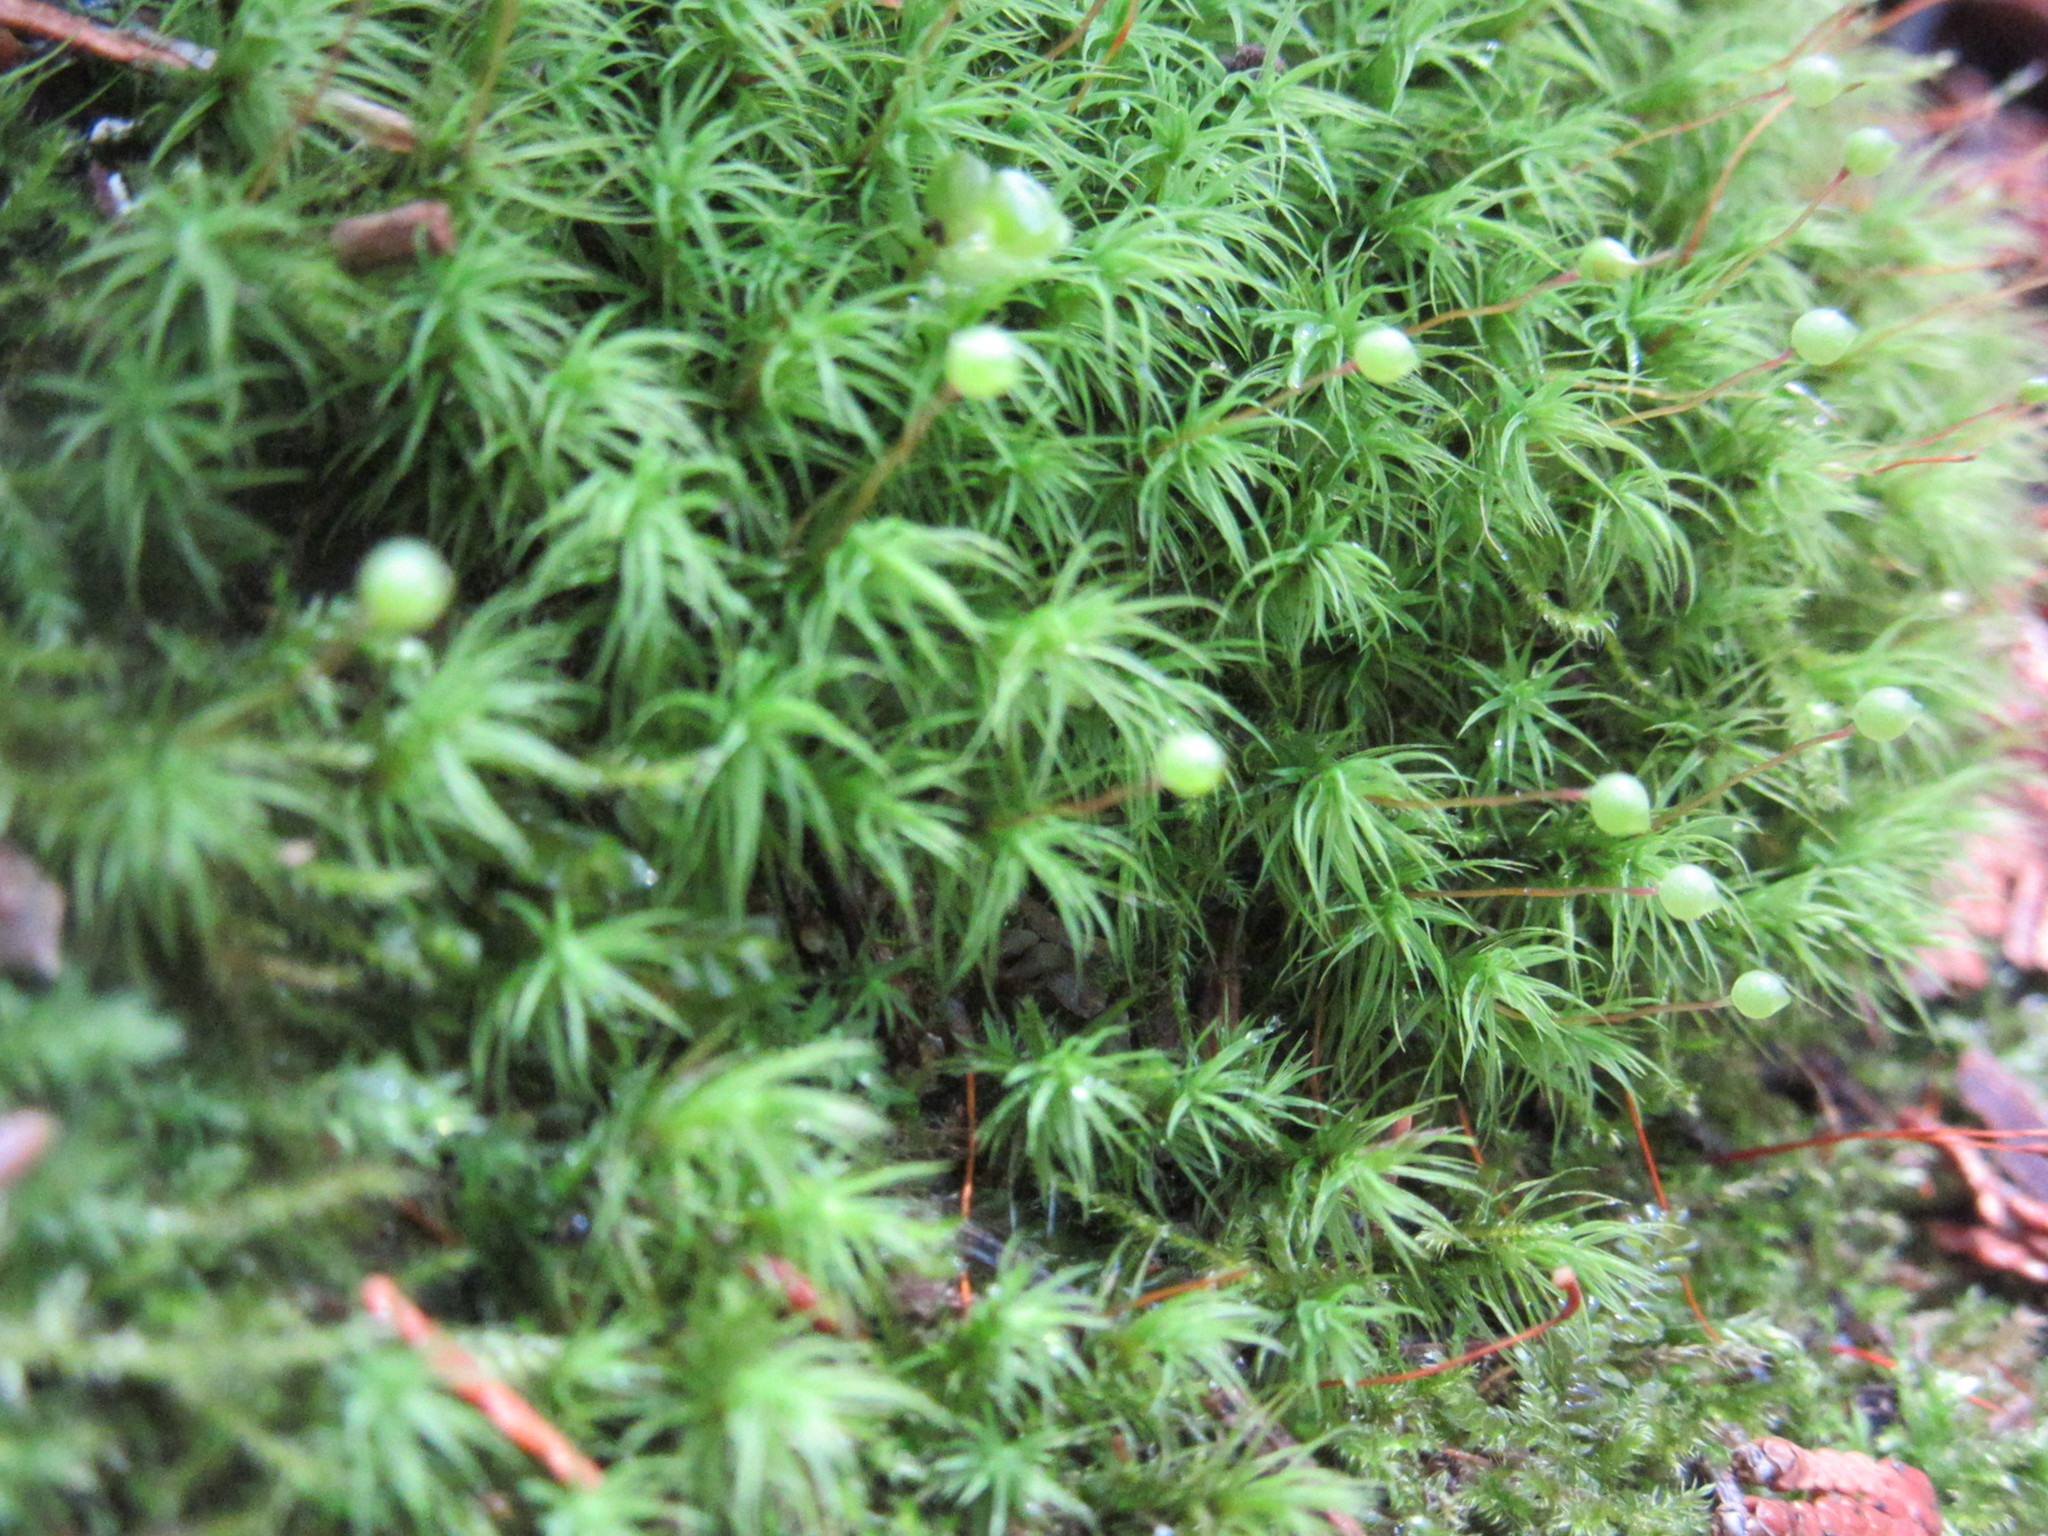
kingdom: Plantae
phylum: Bryophyta
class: Bryopsida
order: Bartramiales
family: Bartramiaceae
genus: Bartramia
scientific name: Bartramia ithyphylla
